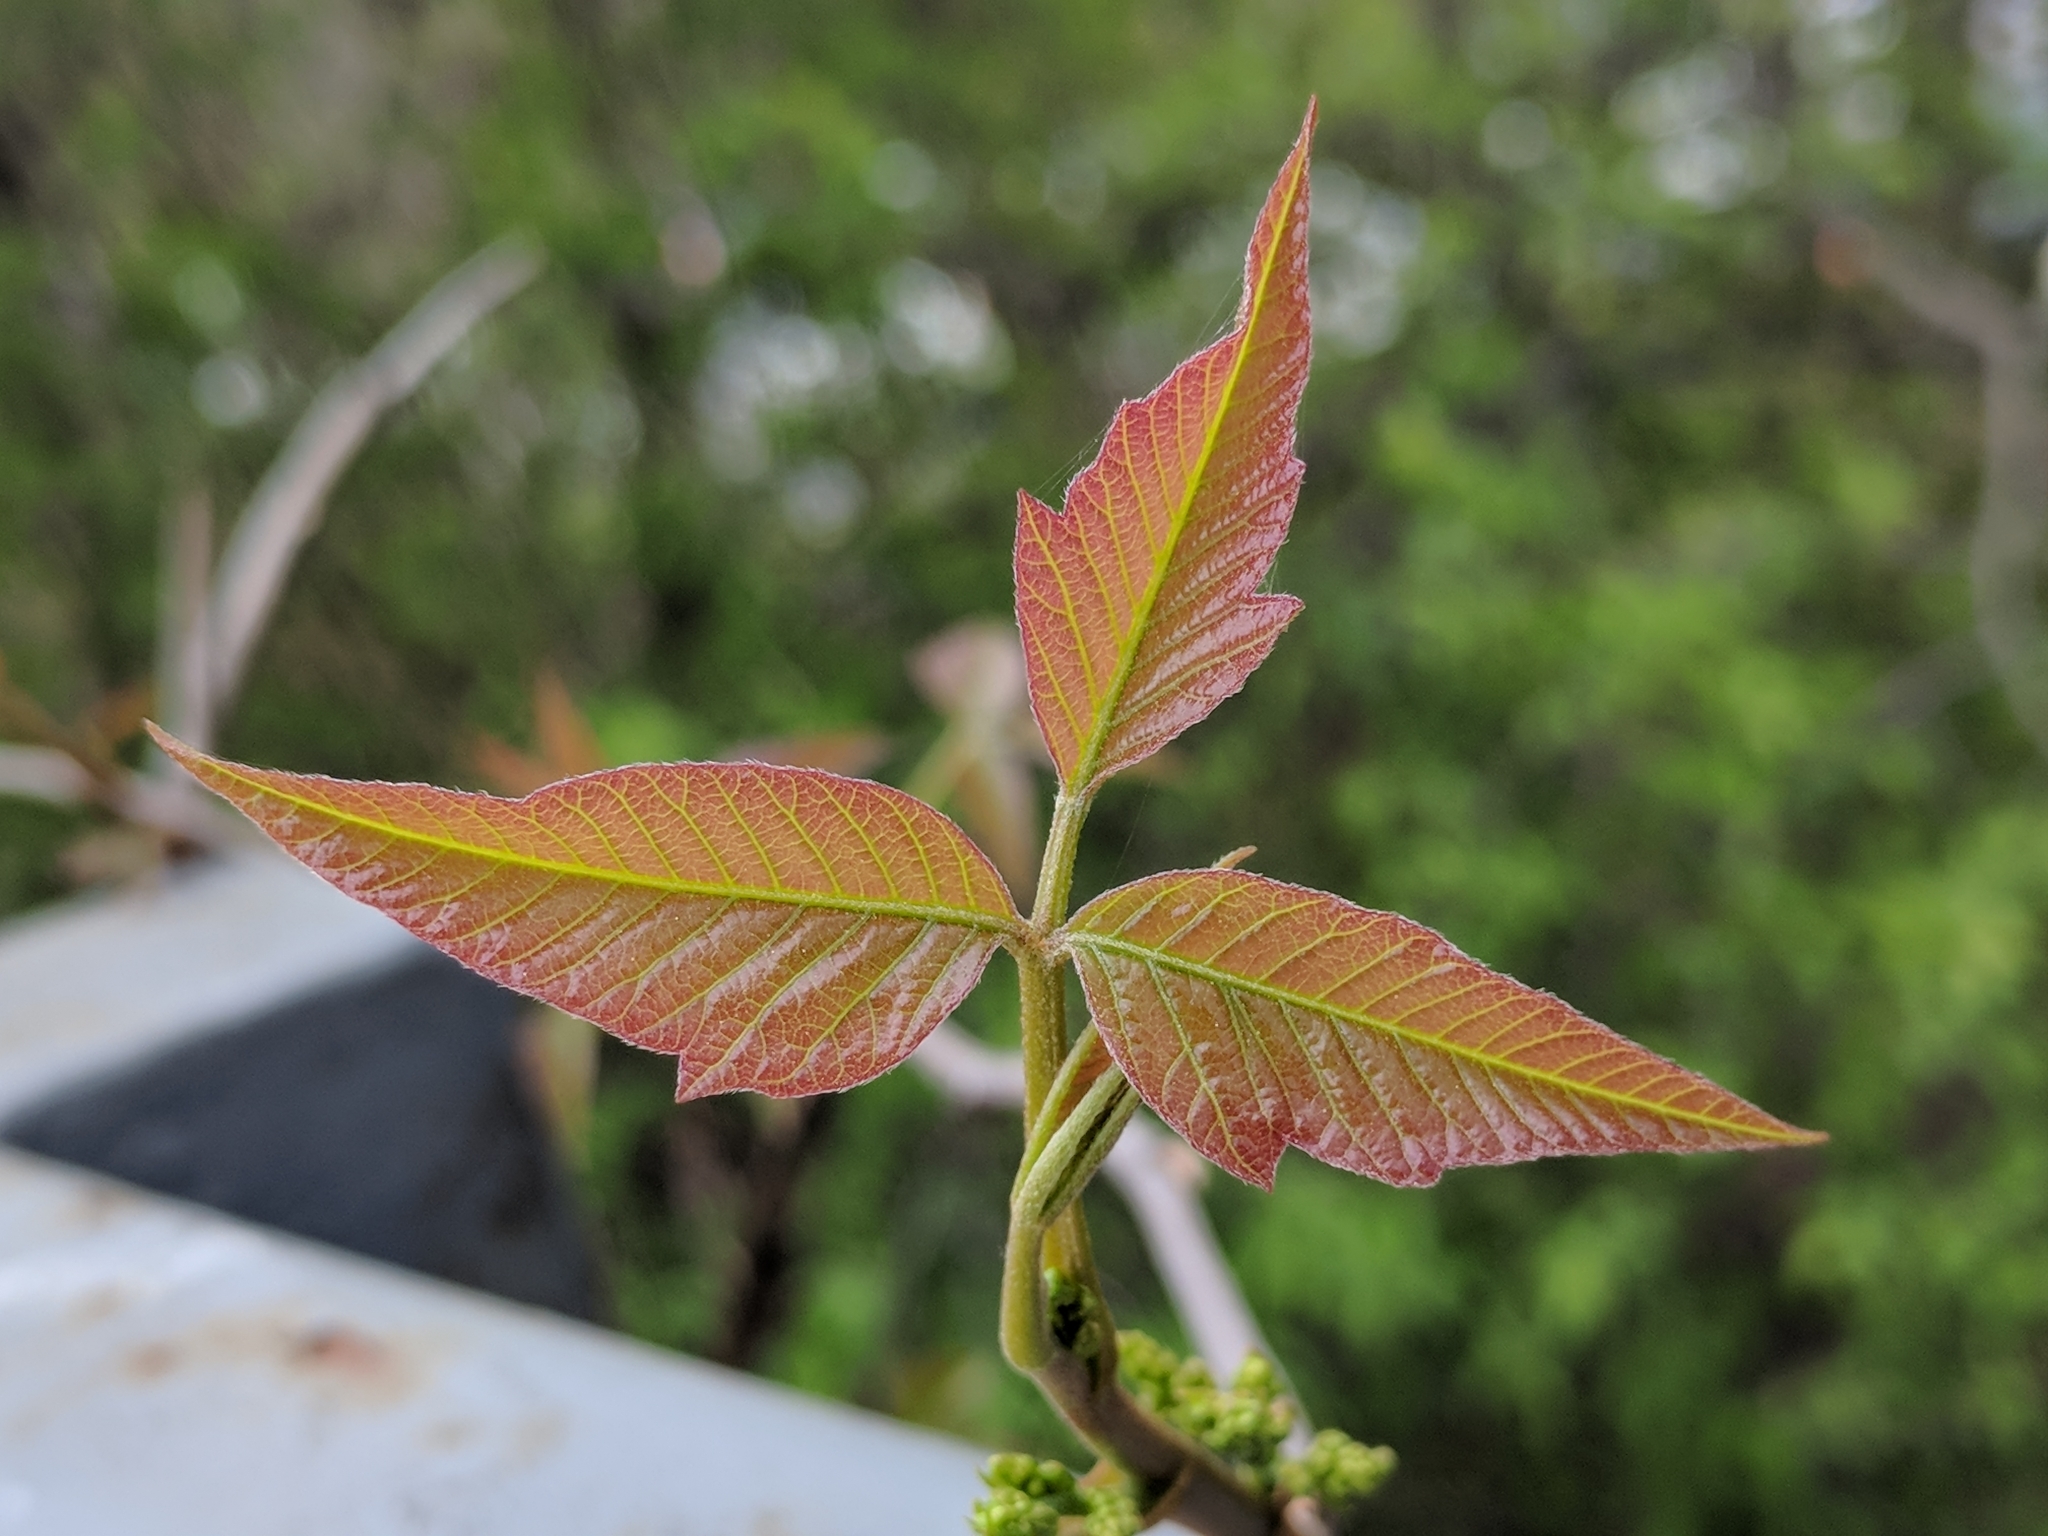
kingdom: Plantae
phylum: Tracheophyta
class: Magnoliopsida
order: Sapindales
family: Anacardiaceae
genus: Toxicodendron
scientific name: Toxicodendron radicans
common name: Poison ivy
